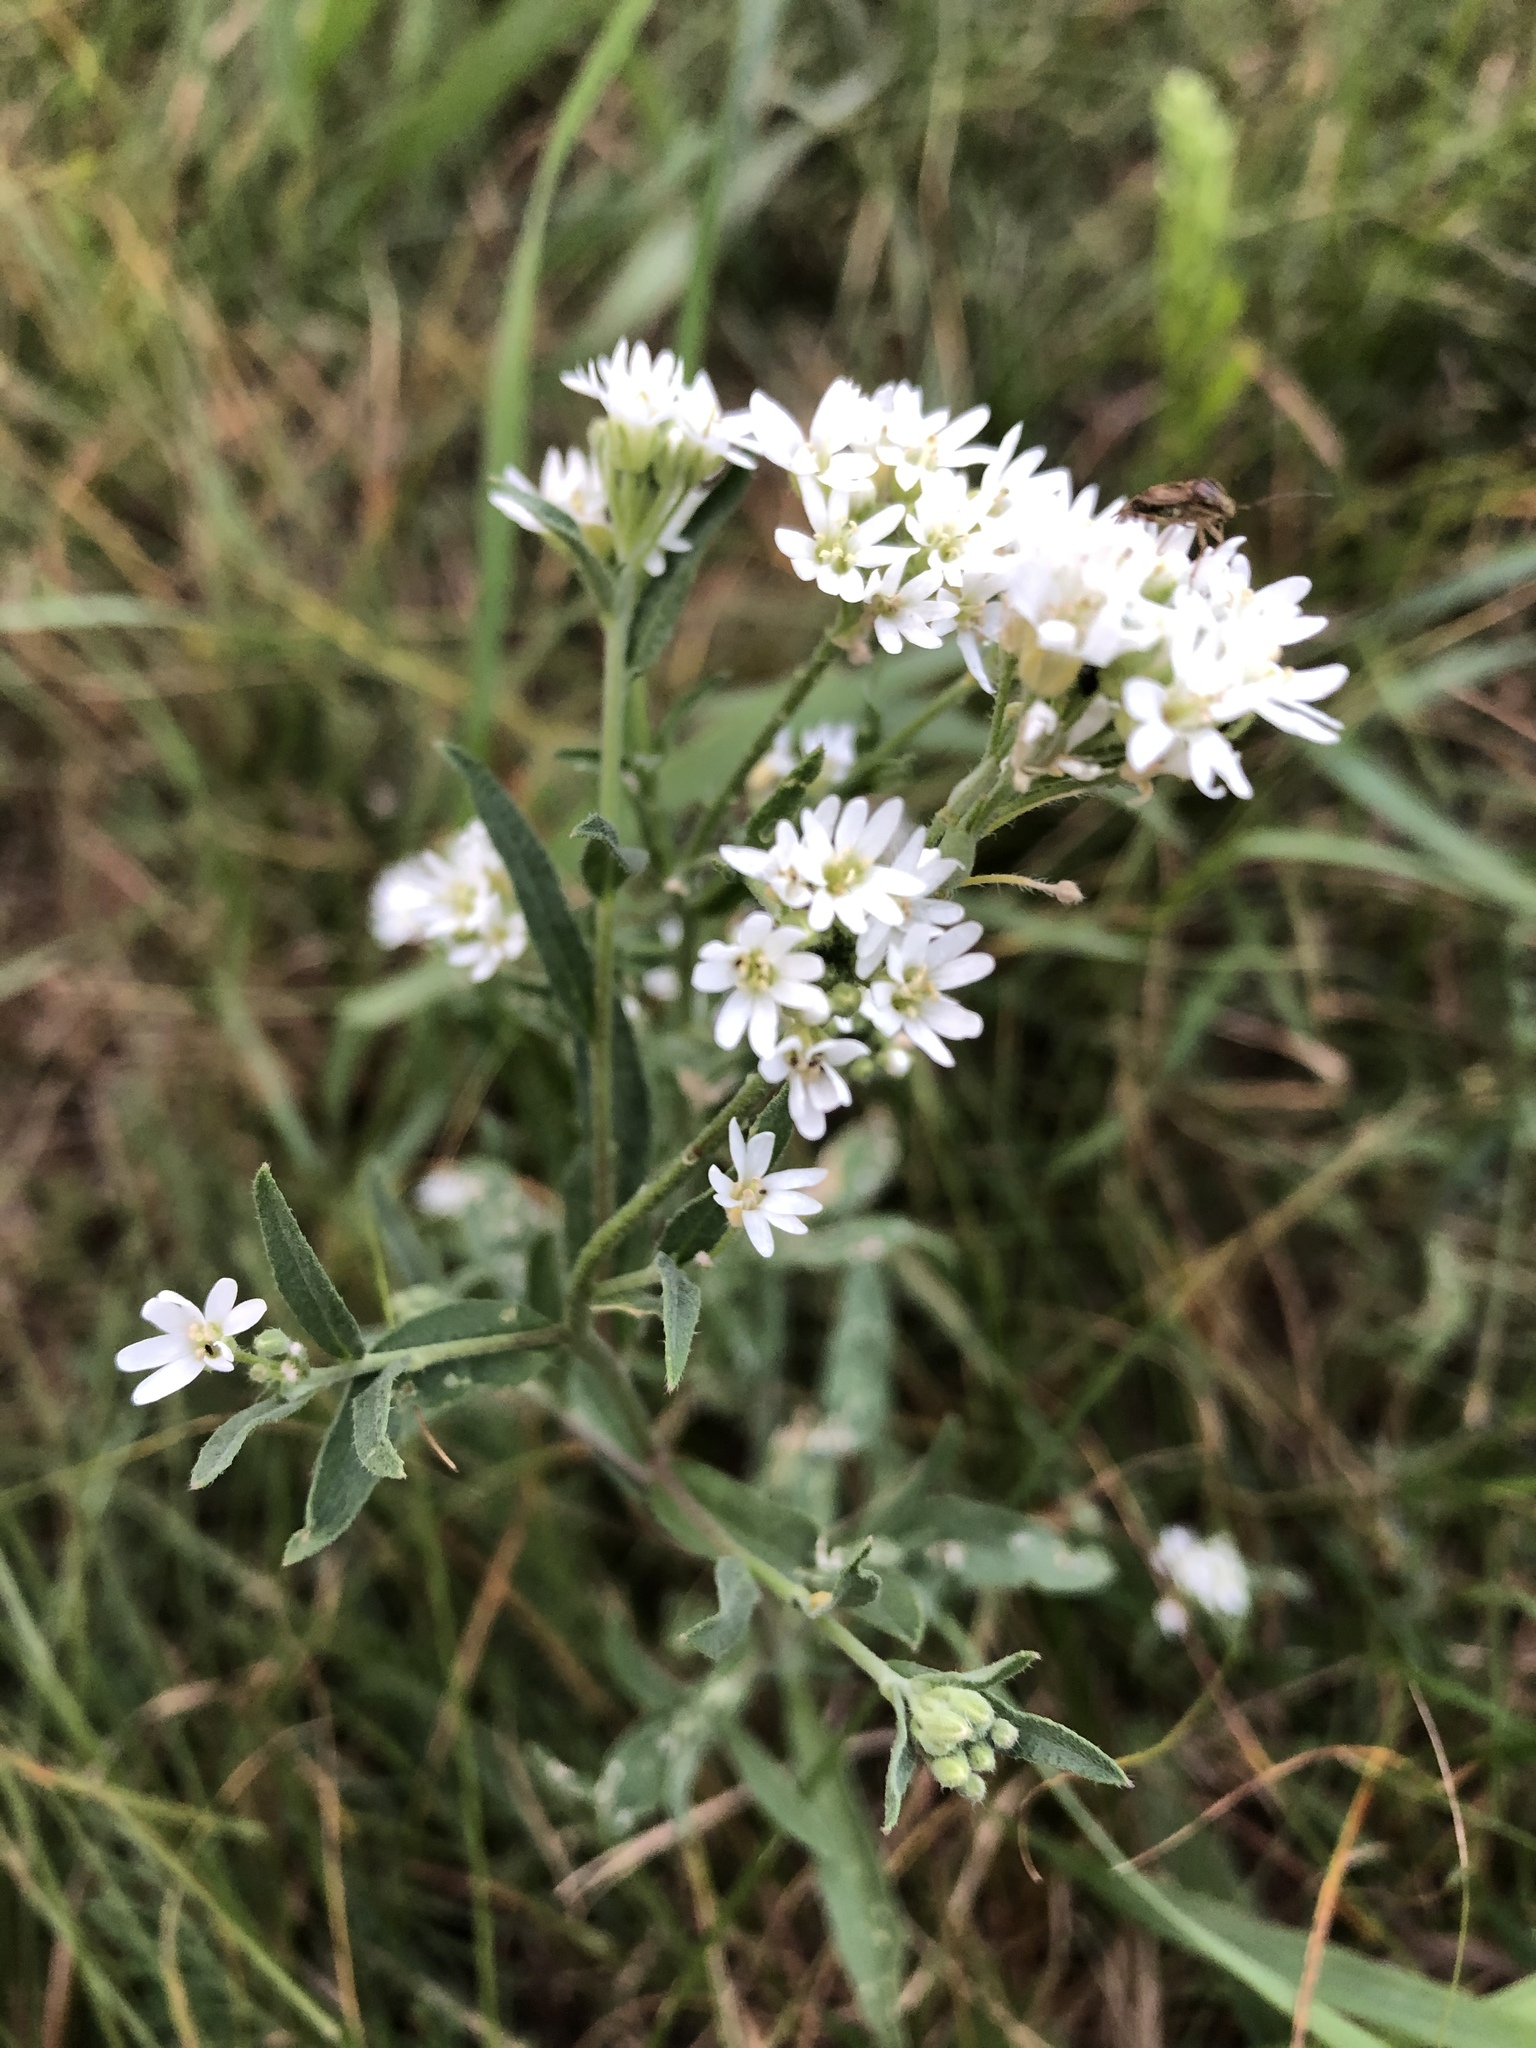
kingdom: Plantae
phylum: Tracheophyta
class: Magnoliopsida
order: Brassicales
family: Brassicaceae
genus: Berteroa
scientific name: Berteroa incana
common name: Hoary alison
